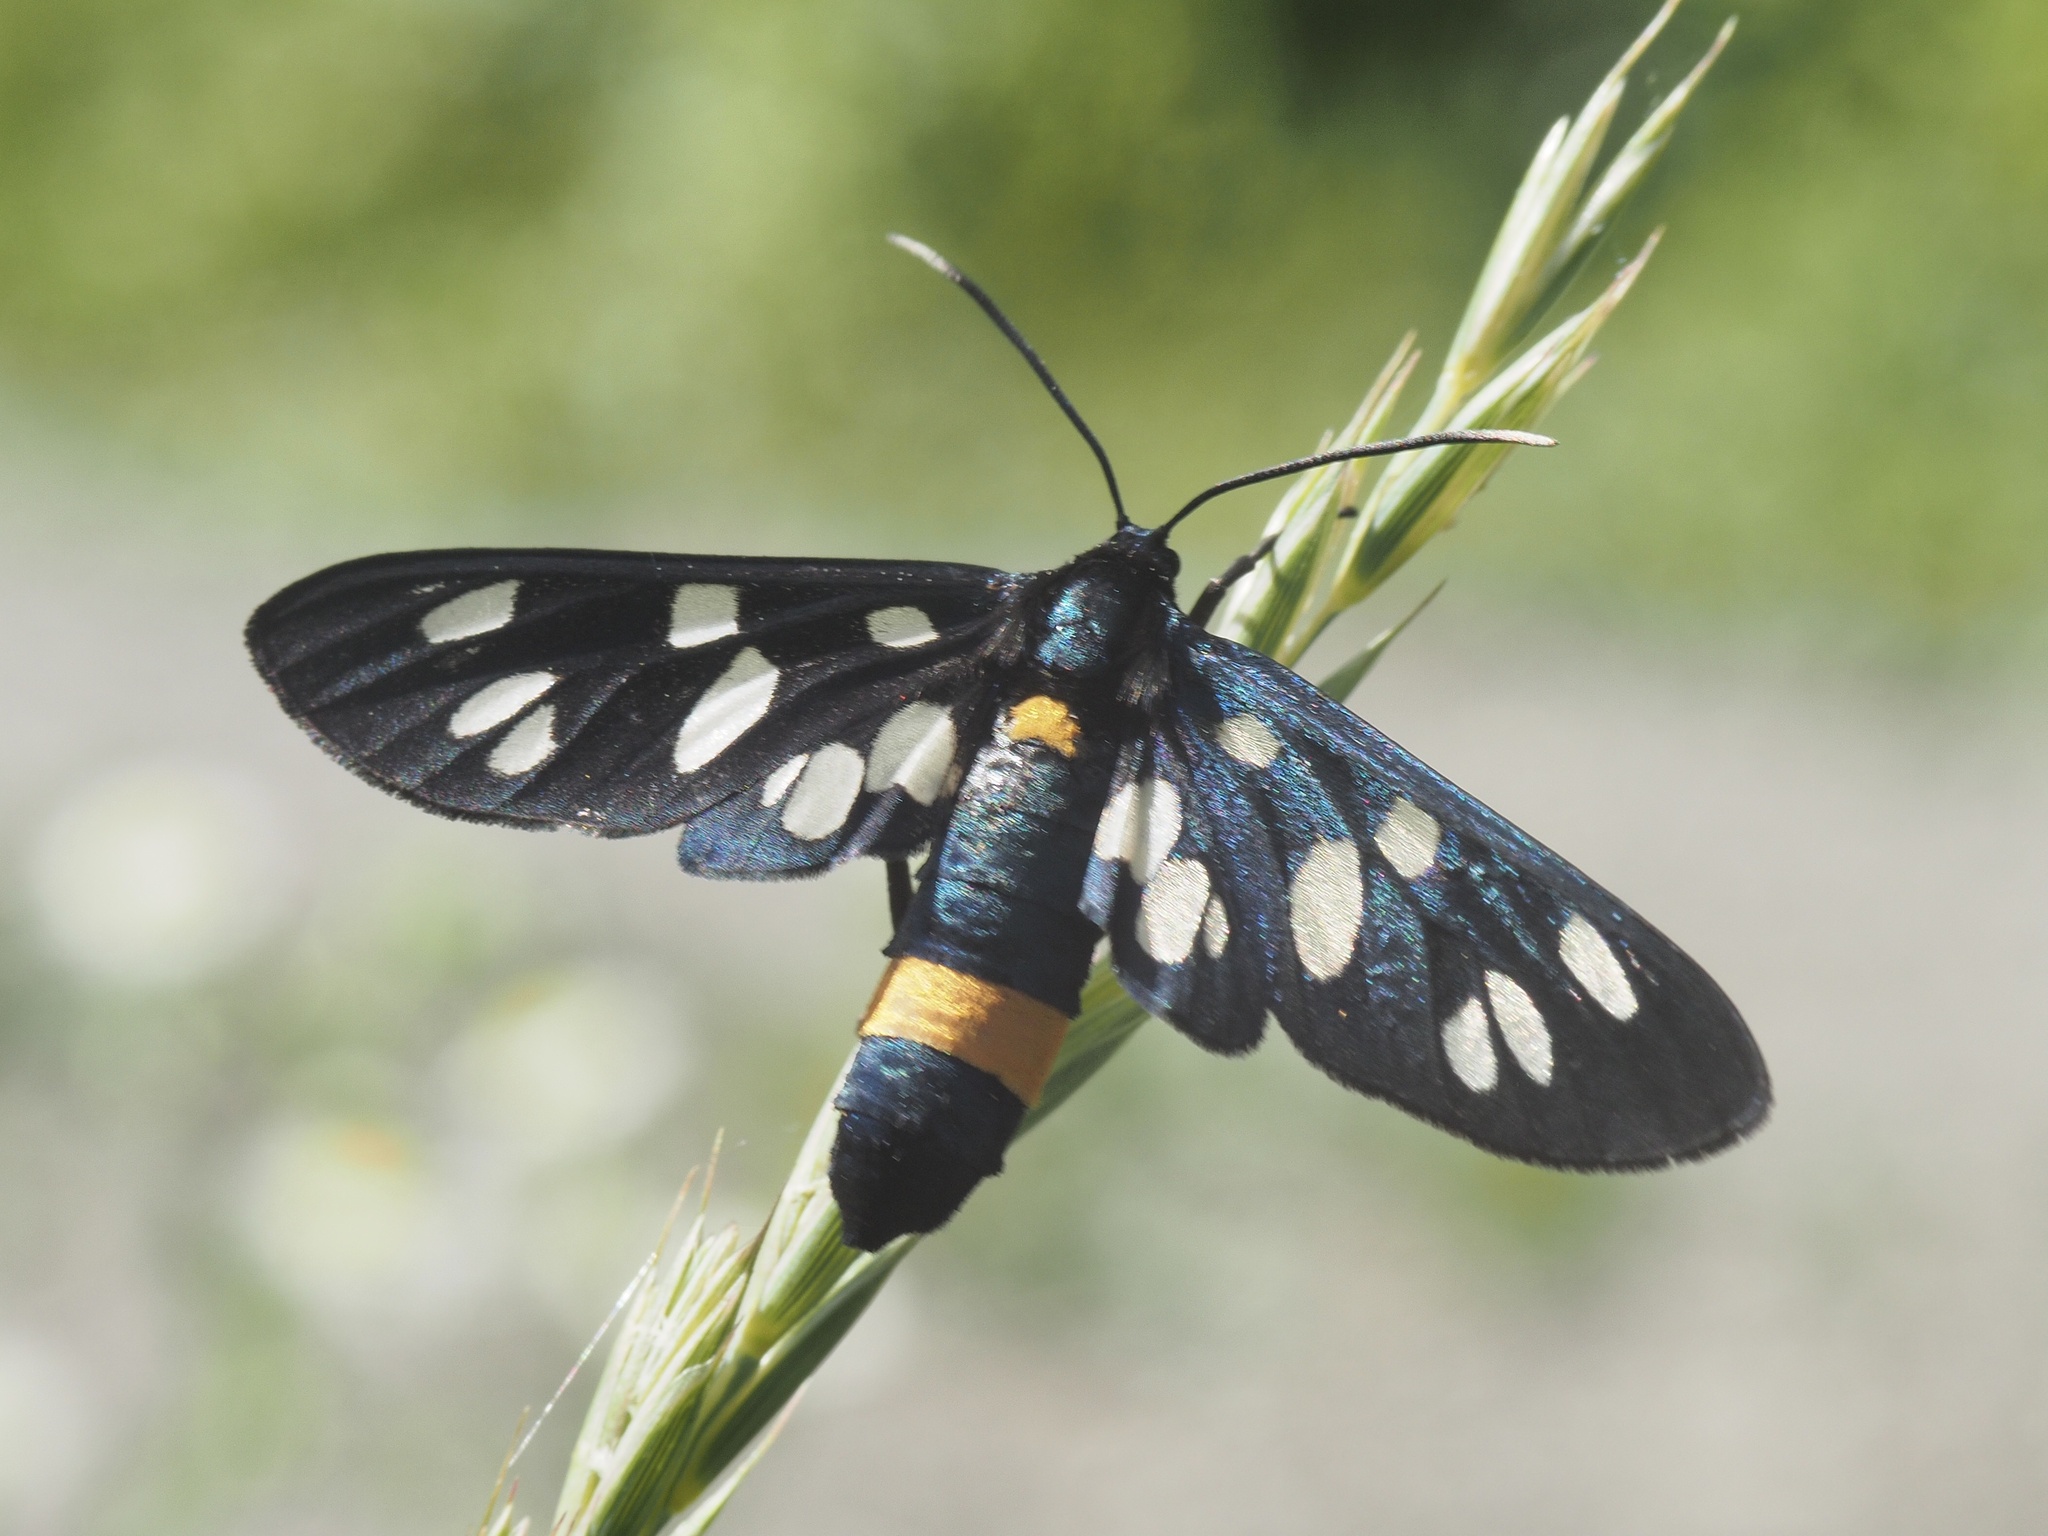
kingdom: Animalia
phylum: Arthropoda
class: Insecta
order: Lepidoptera
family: Erebidae
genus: Amata
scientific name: Amata phegea
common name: Nine-spotted
